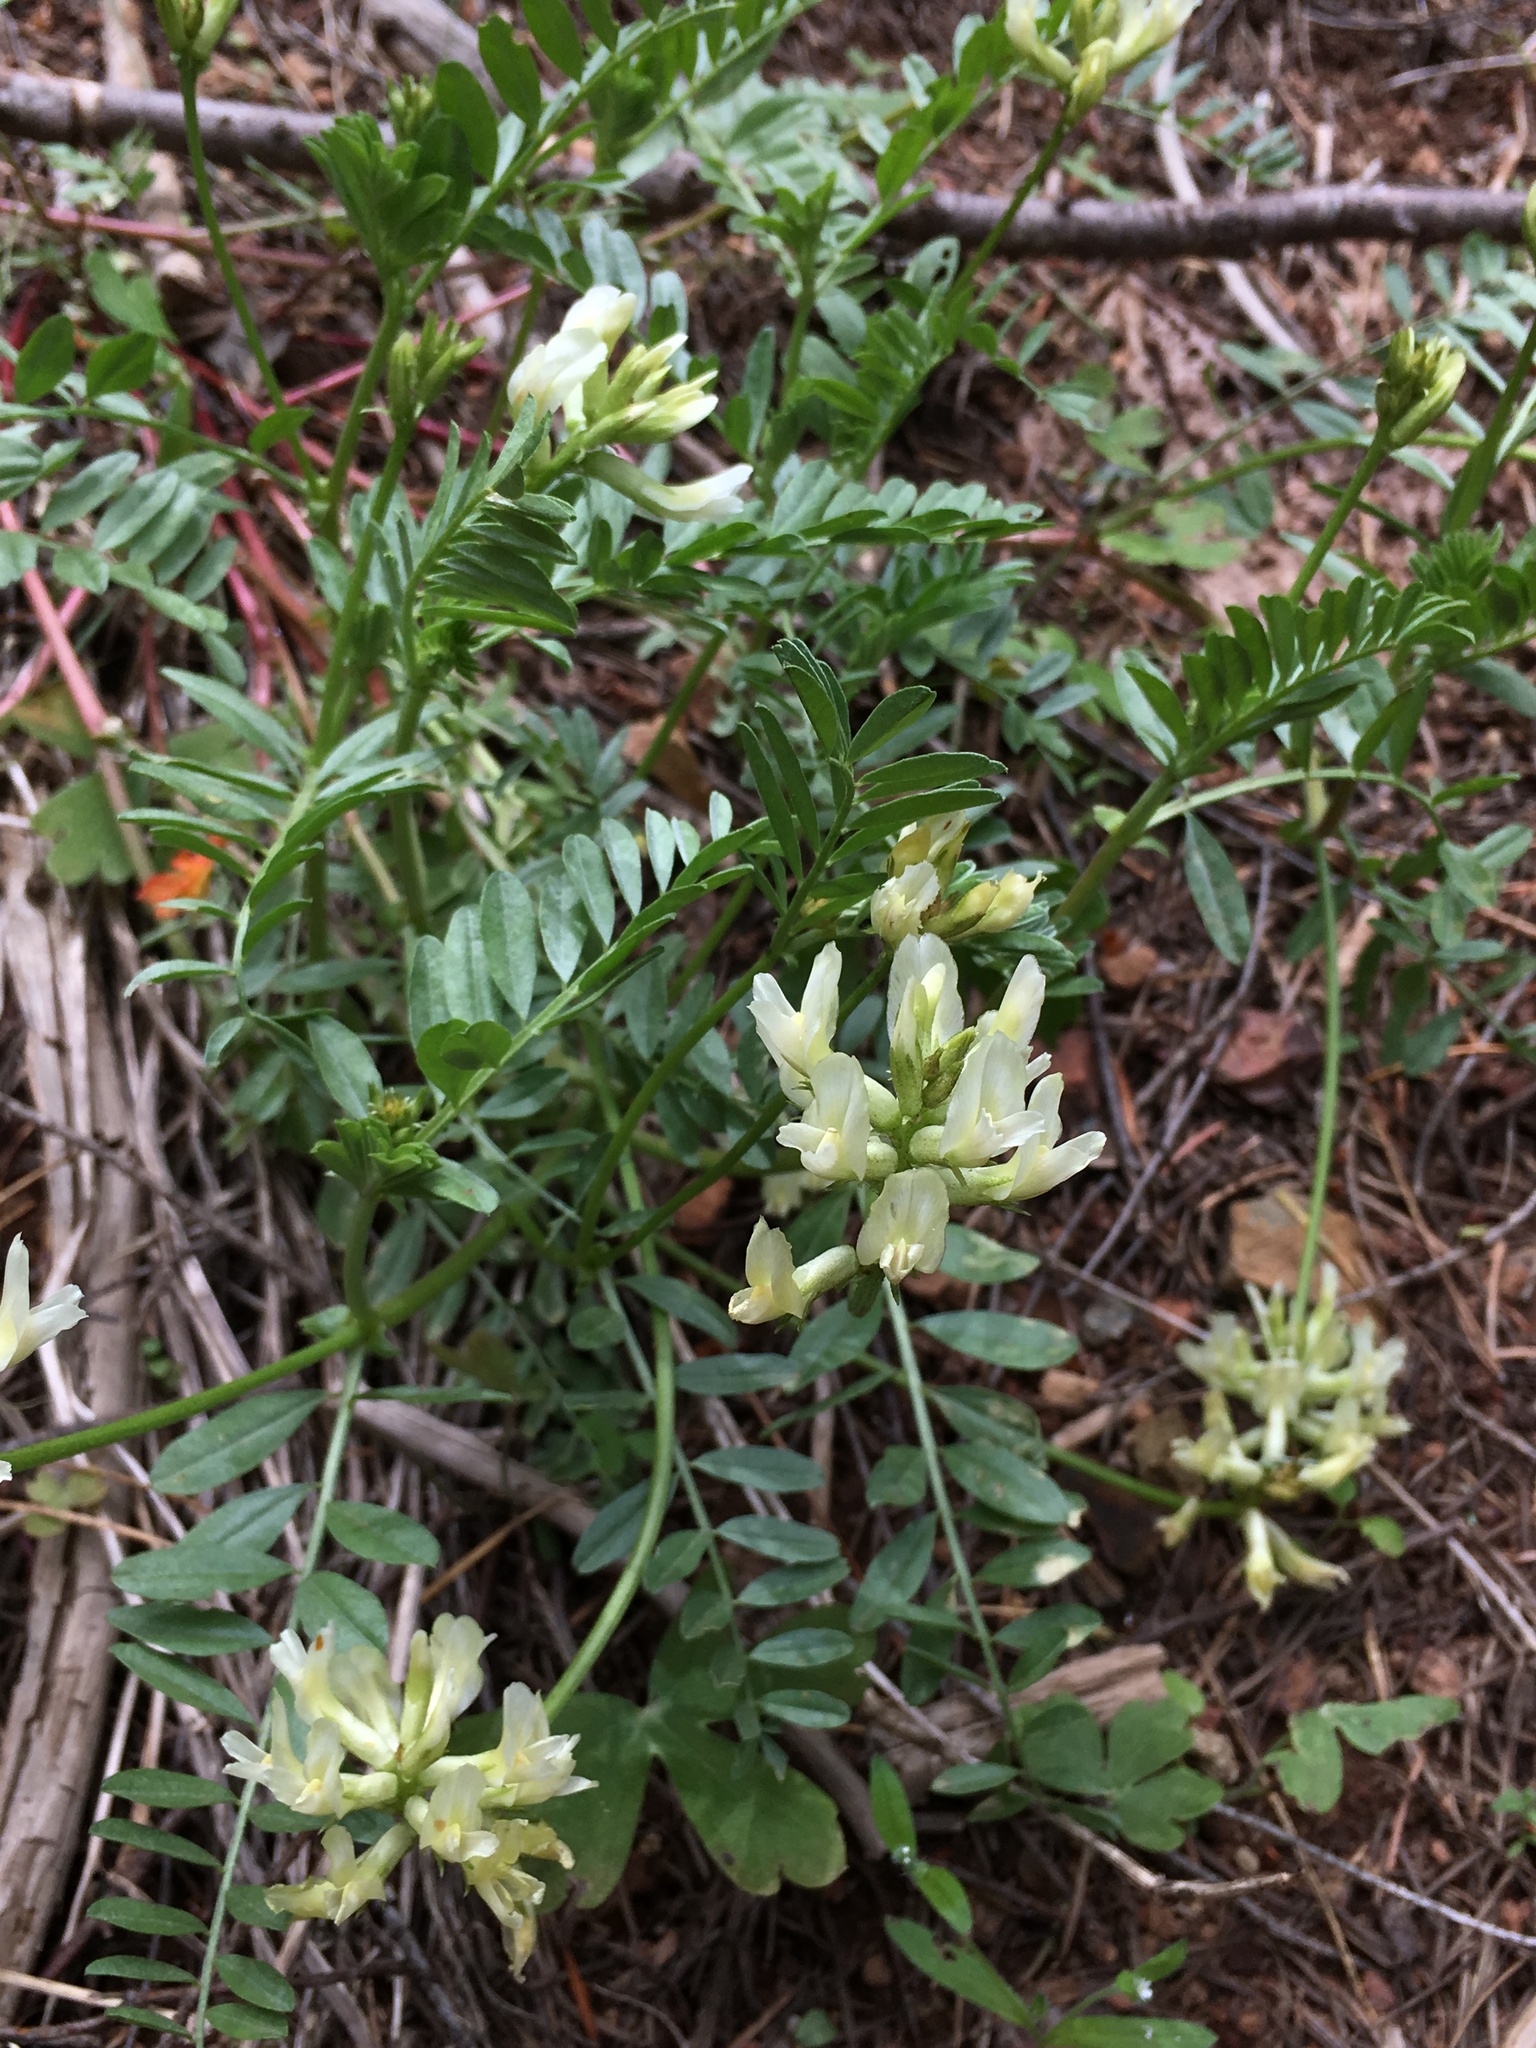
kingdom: Plantae
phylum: Tracheophyta
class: Magnoliopsida
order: Fabales
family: Fabaceae
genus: Astragalus
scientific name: Astragalus webberi
